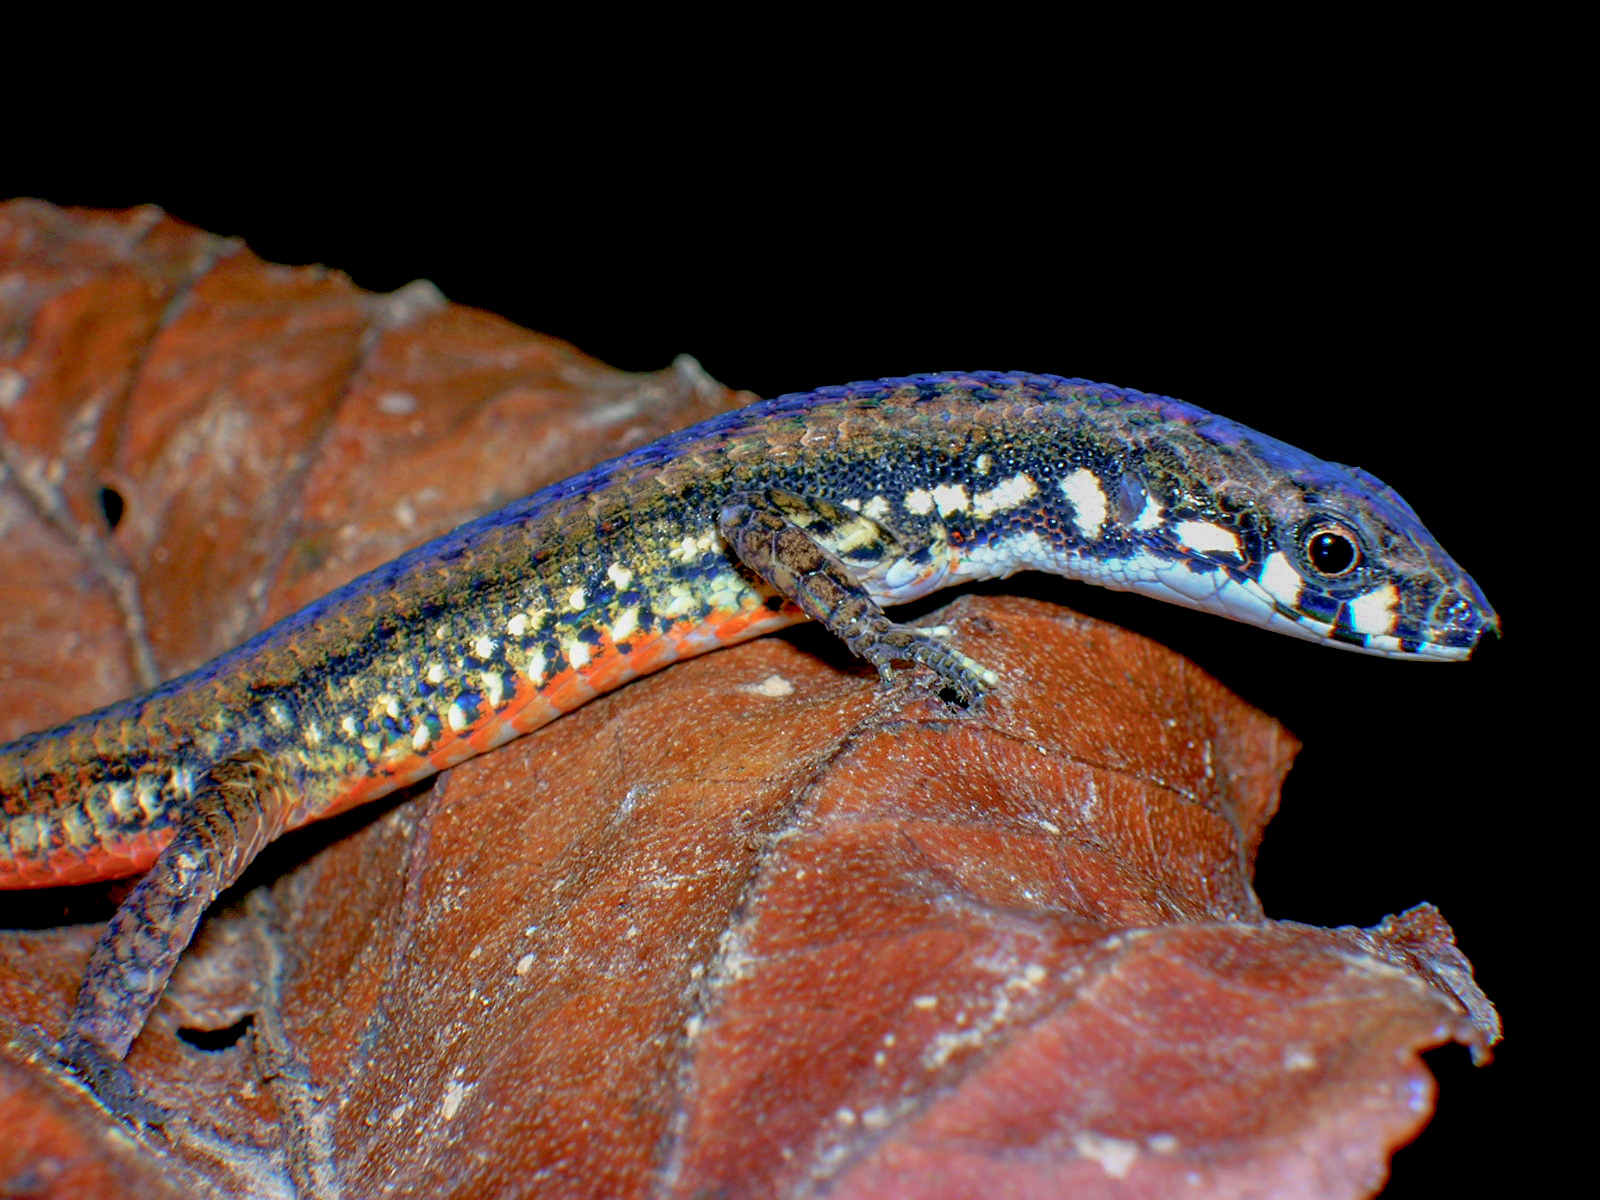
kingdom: Animalia
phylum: Chordata
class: Squamata
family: Gymnophthalmidae
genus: Cercosaura
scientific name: Cercosaura eigenmanni
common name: Eigenmann's cercosaura
